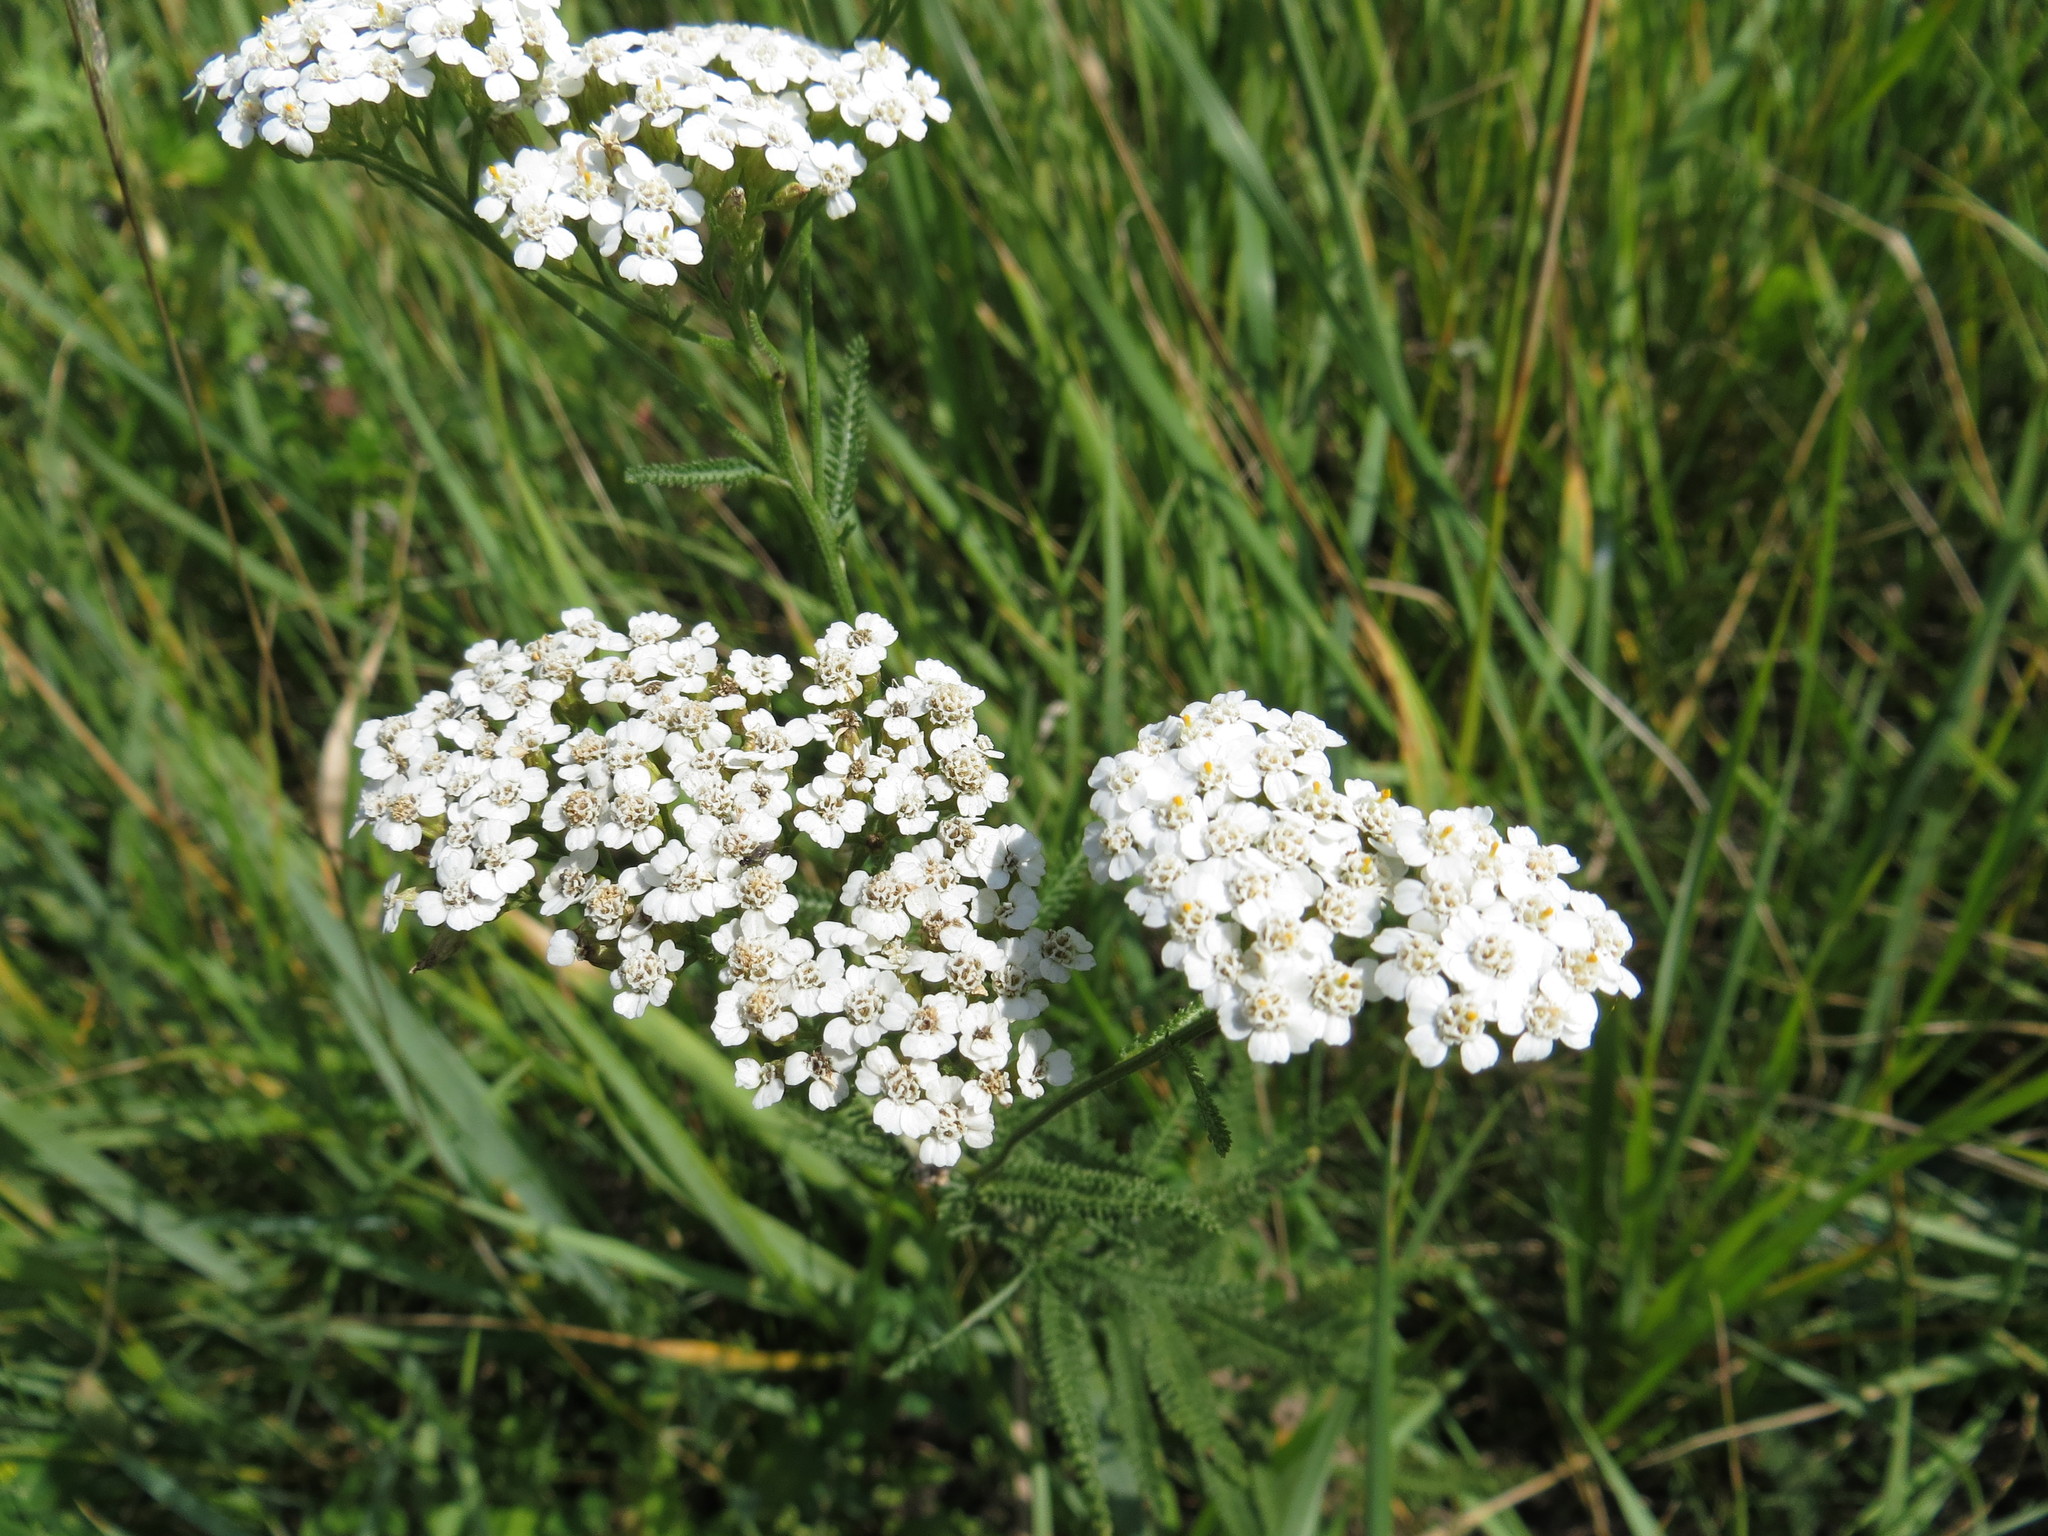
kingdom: Plantae
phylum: Tracheophyta
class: Magnoliopsida
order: Asterales
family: Asteraceae
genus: Achillea
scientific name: Achillea millefolium
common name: Yarrow
